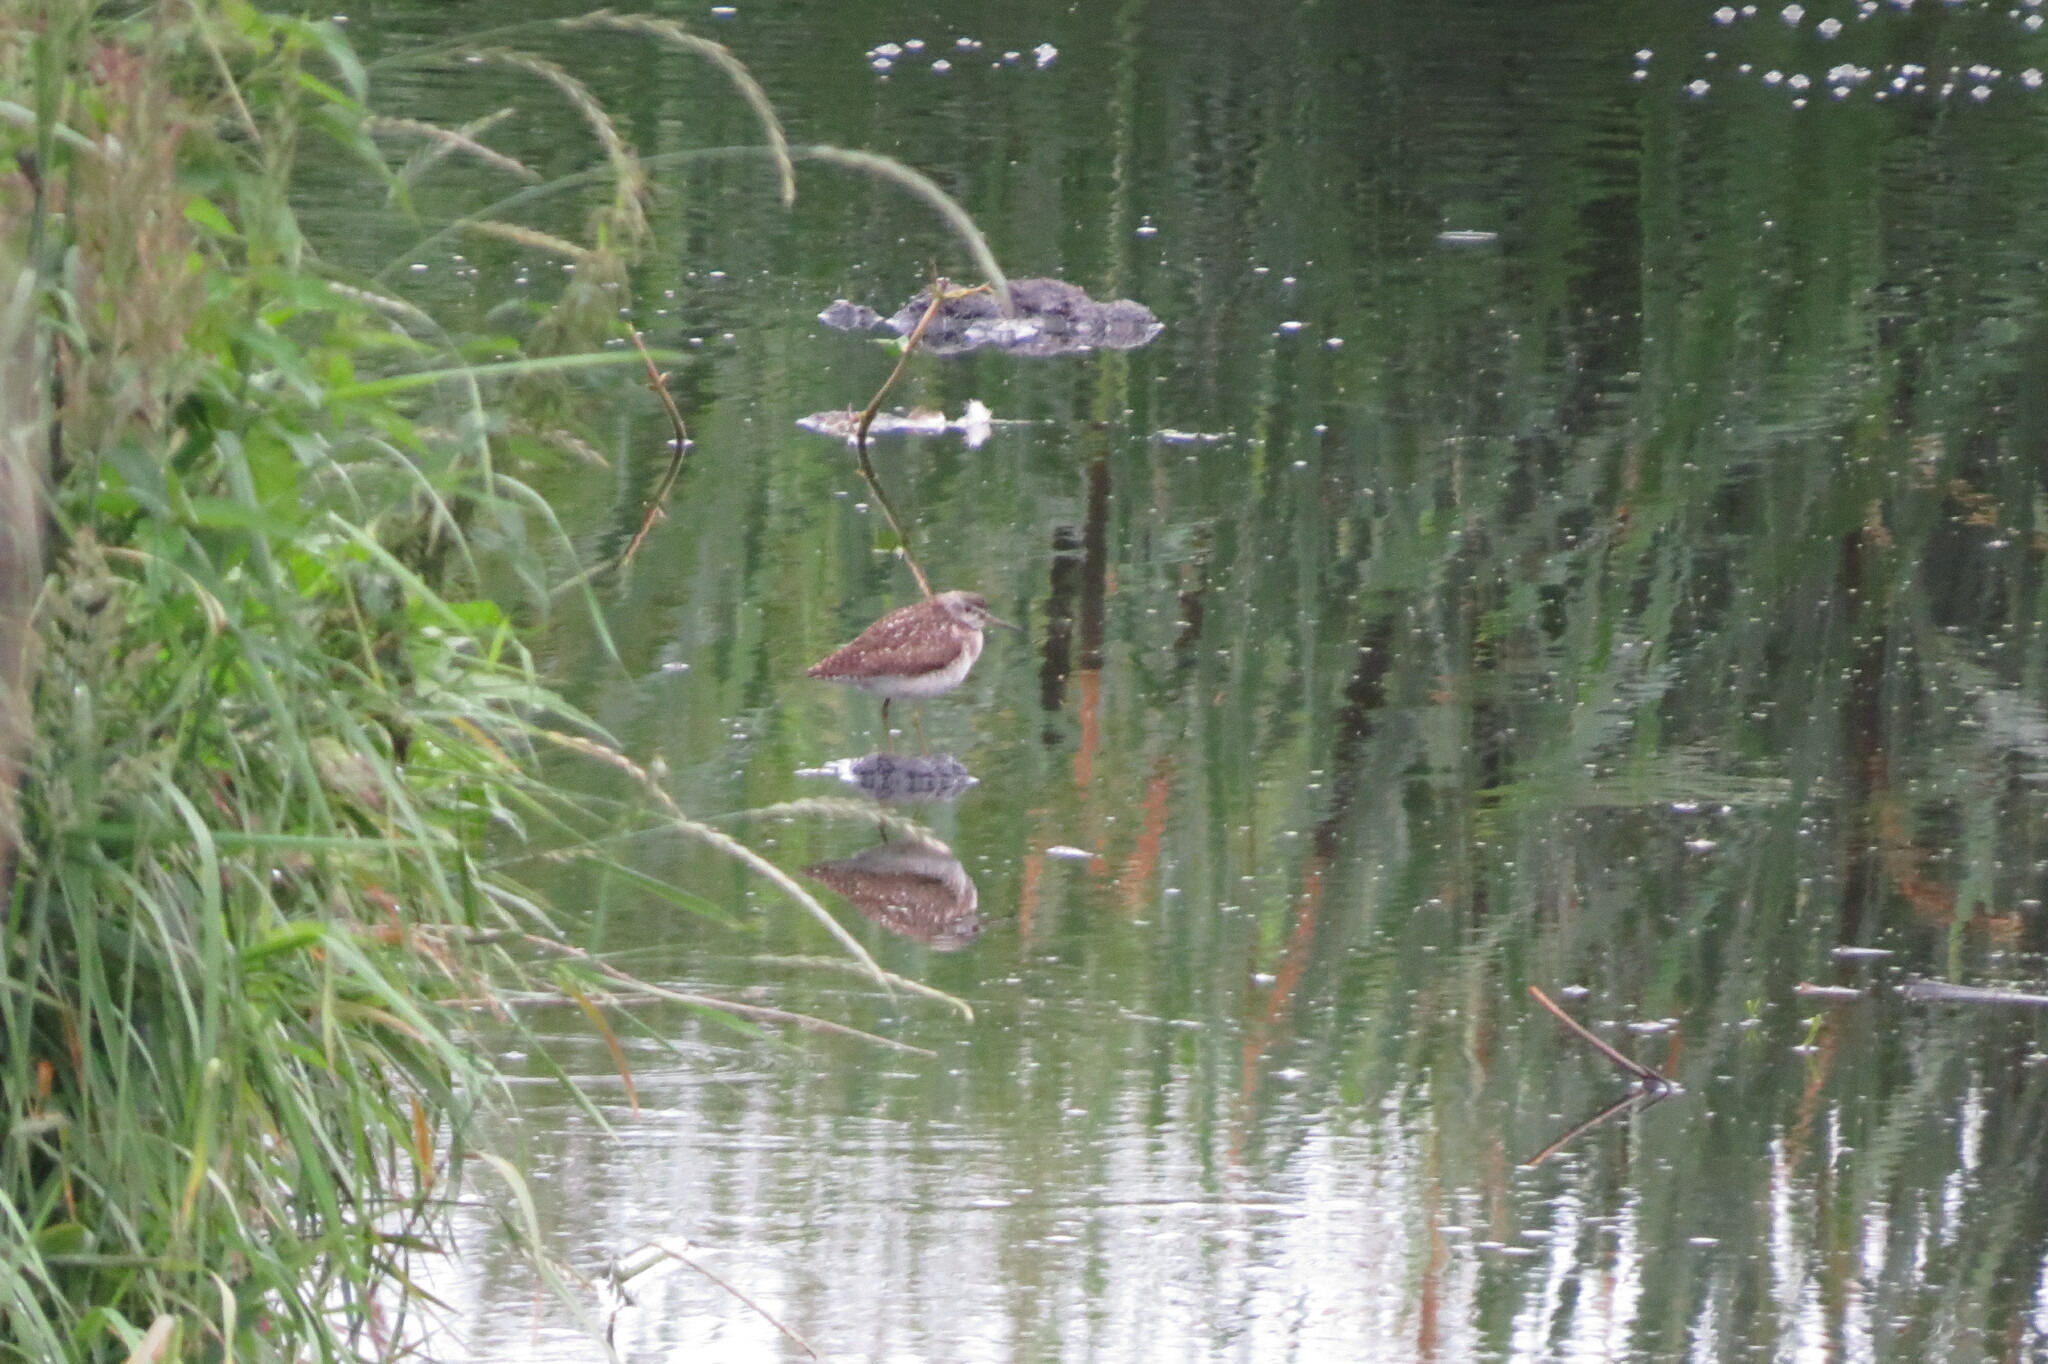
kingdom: Animalia
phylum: Chordata
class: Aves
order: Charadriiformes
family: Scolopacidae
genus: Tringa
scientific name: Tringa glareola
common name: Wood sandpiper
